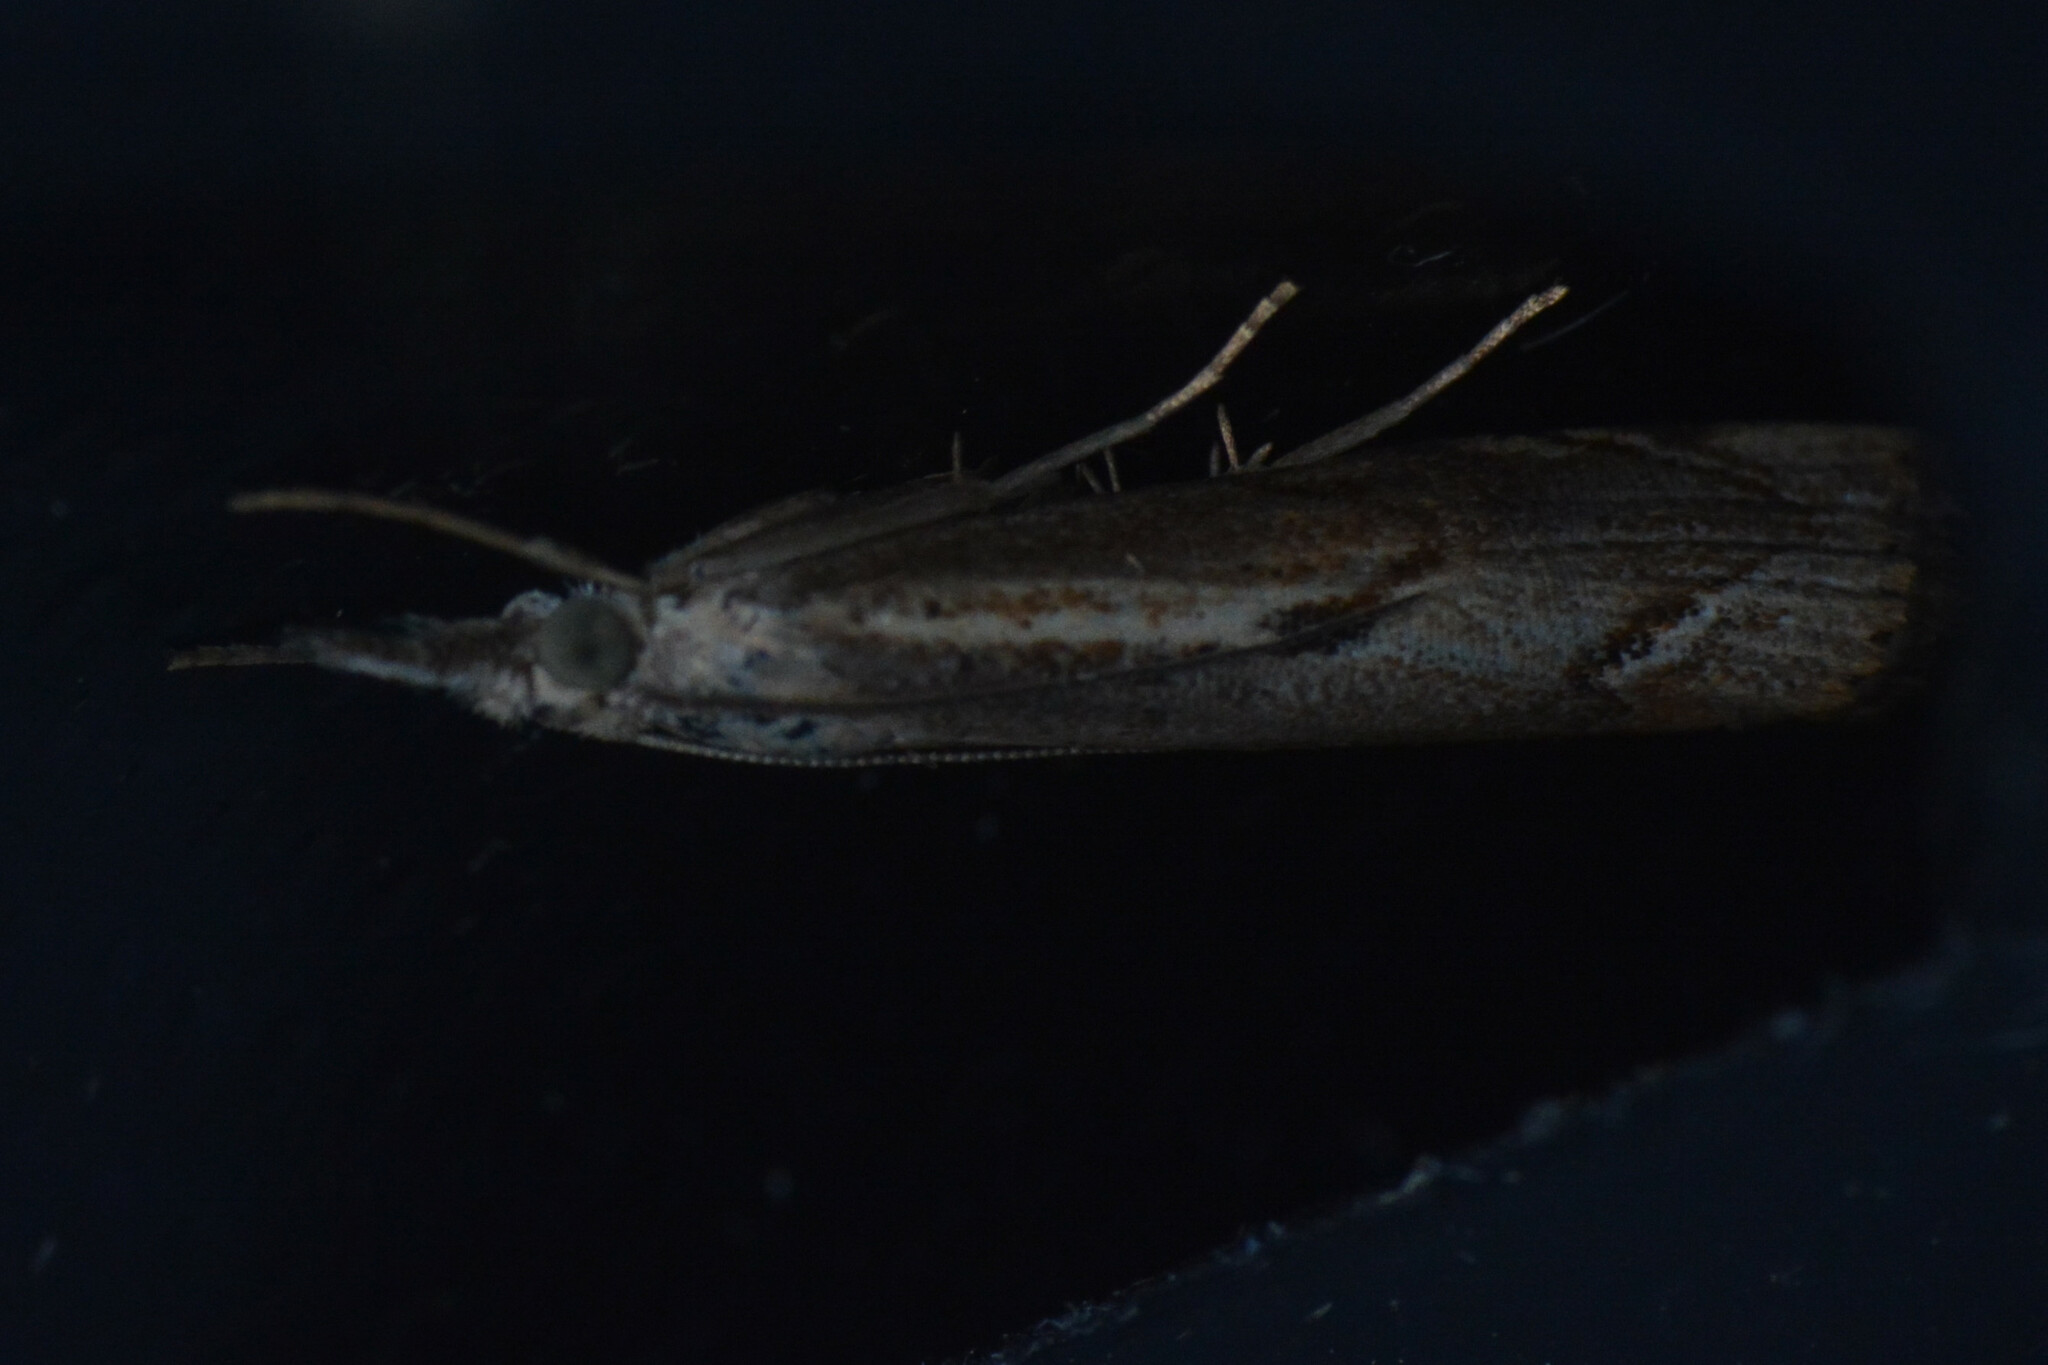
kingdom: Animalia
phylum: Arthropoda
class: Insecta
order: Lepidoptera
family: Crambidae
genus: Agriphila
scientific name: Agriphila geniculea
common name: Elbow-stripe grass-veneer
